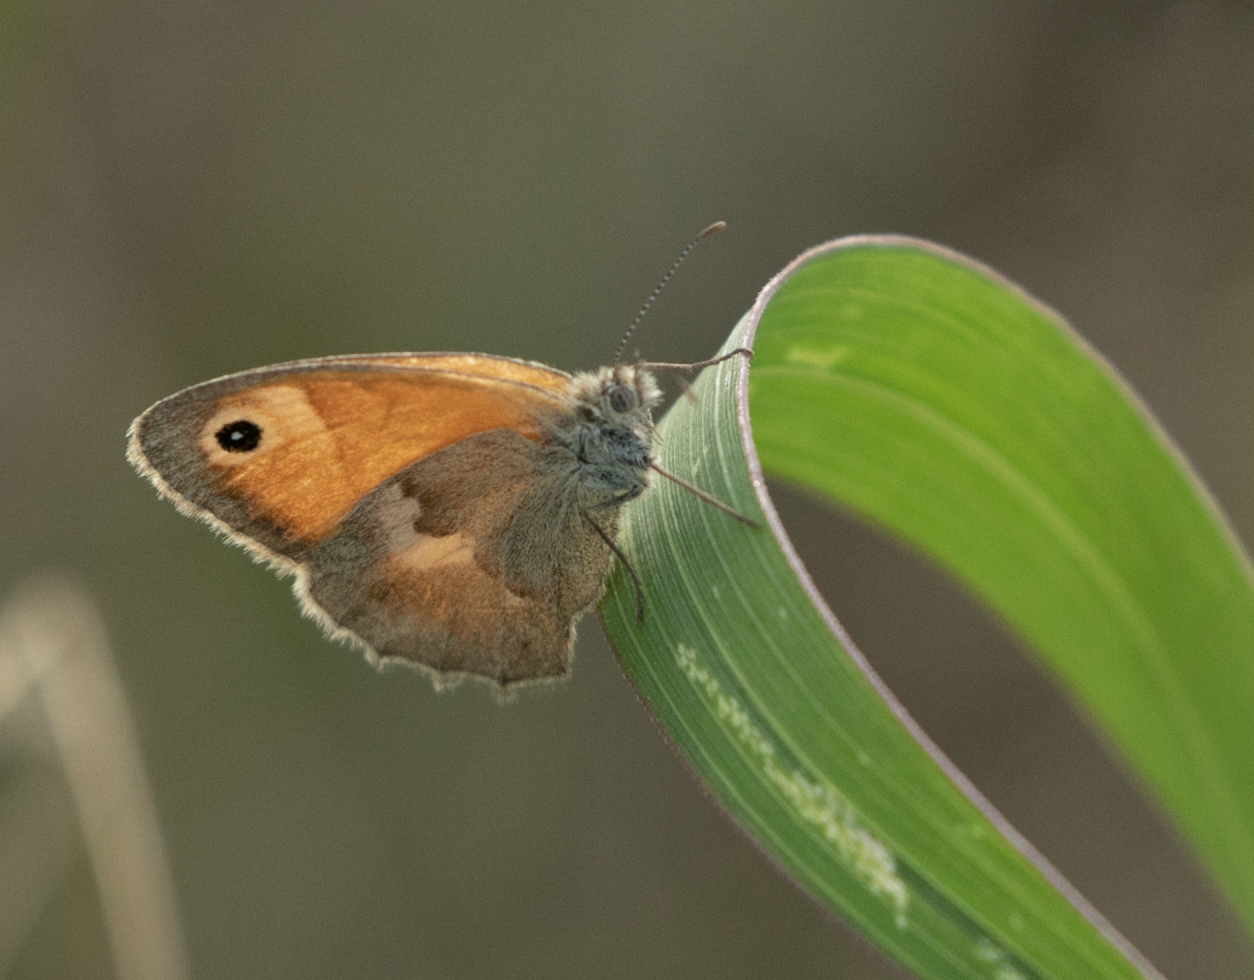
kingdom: Animalia
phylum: Arthropoda
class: Insecta
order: Lepidoptera
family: Nymphalidae
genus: Coenonympha
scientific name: Coenonympha pamphilus
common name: Small heath
